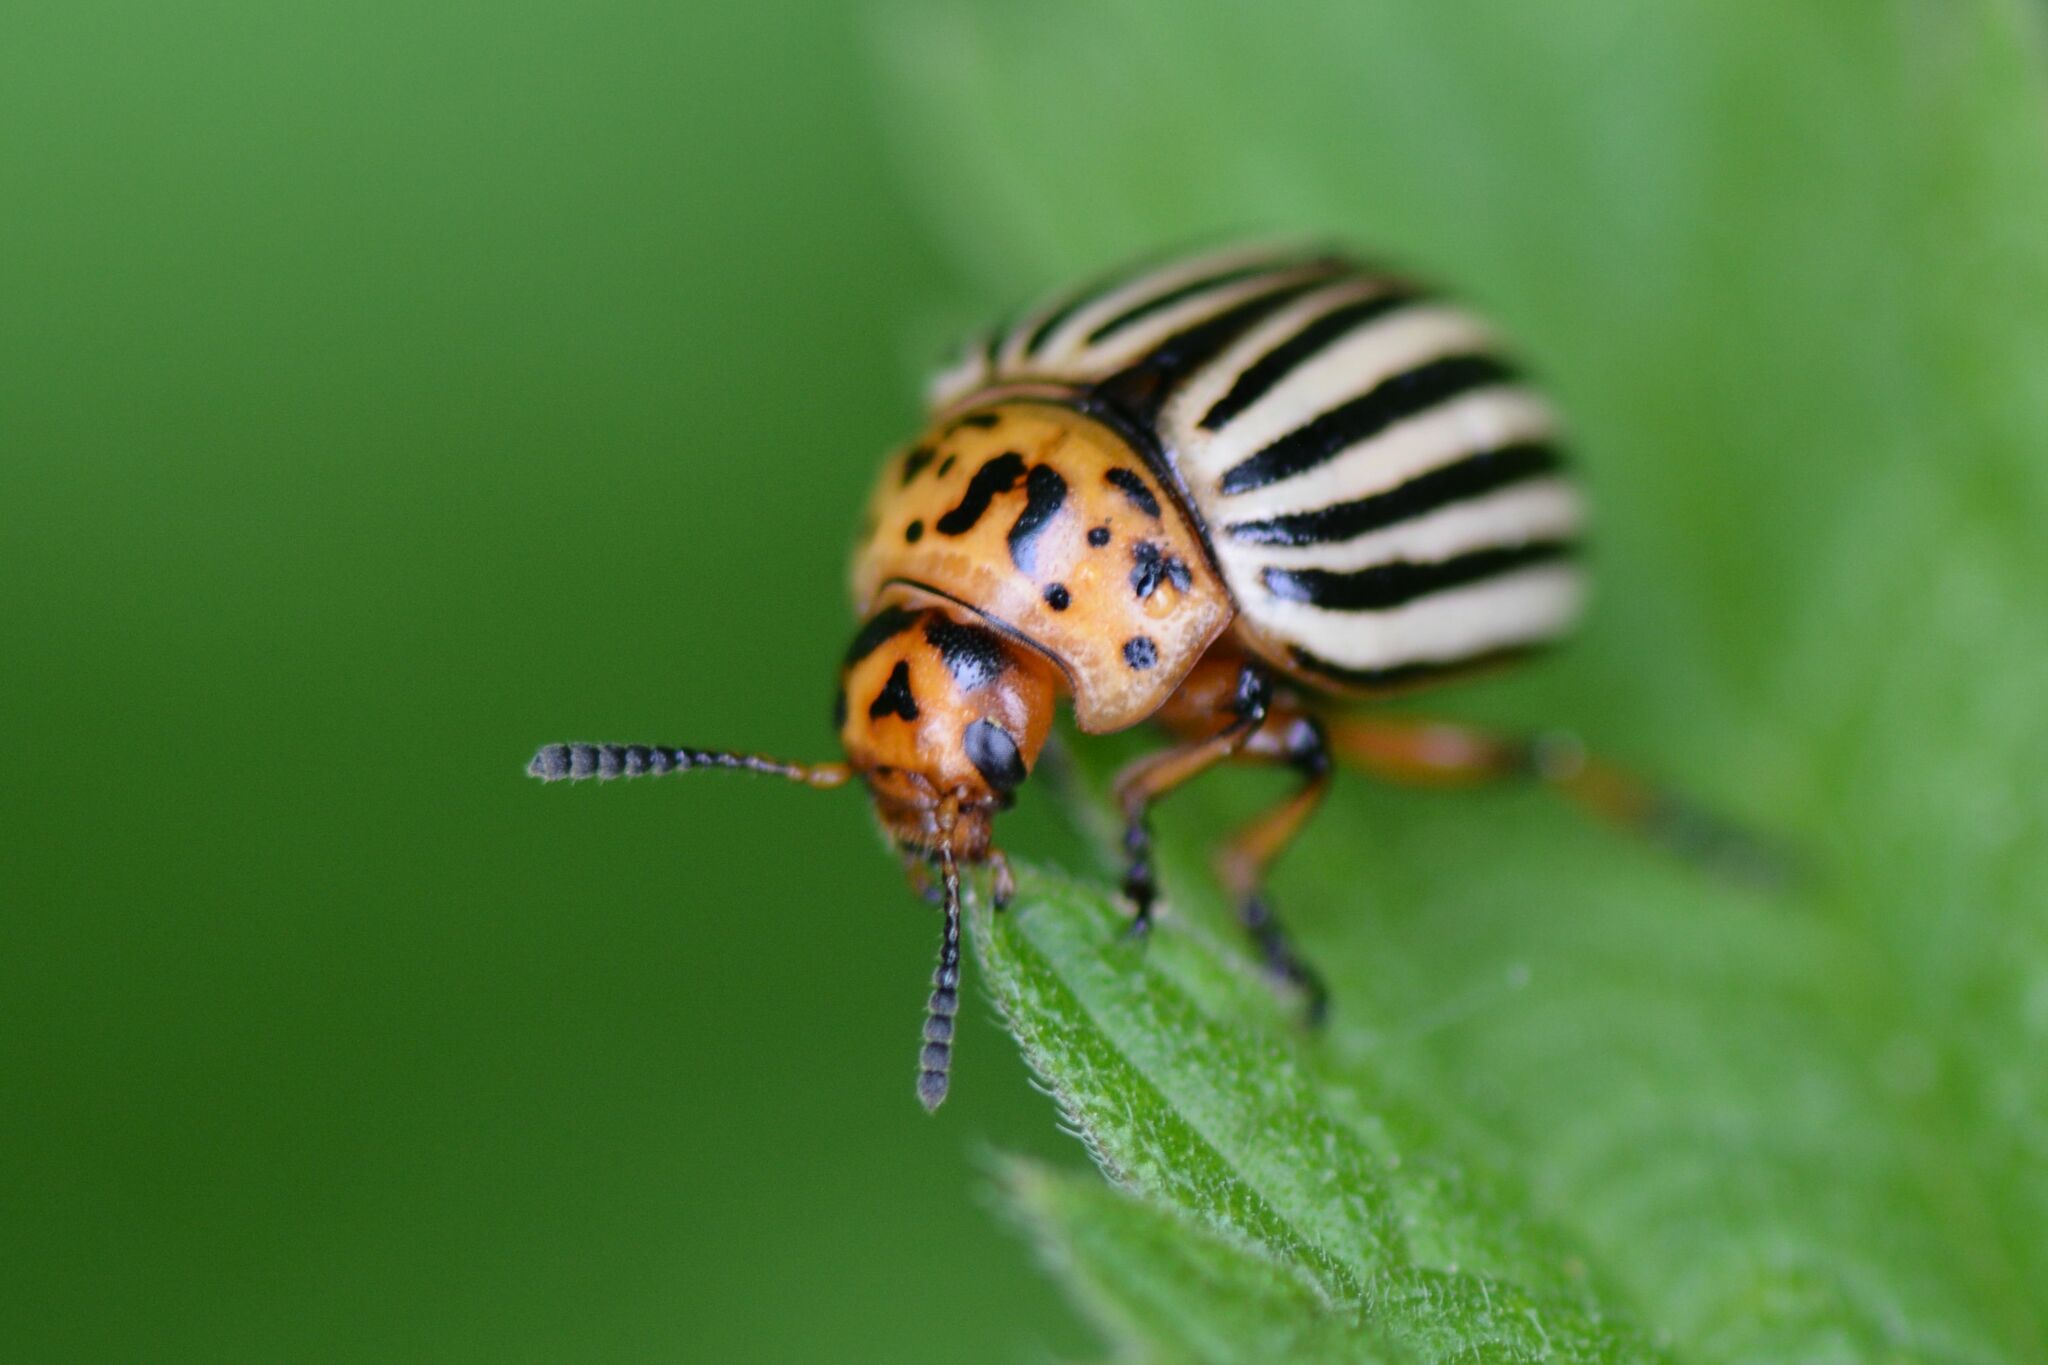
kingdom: Animalia
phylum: Arthropoda
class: Insecta
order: Coleoptera
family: Chrysomelidae
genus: Leptinotarsa
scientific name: Leptinotarsa decemlineata
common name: Colorado potato beetle
